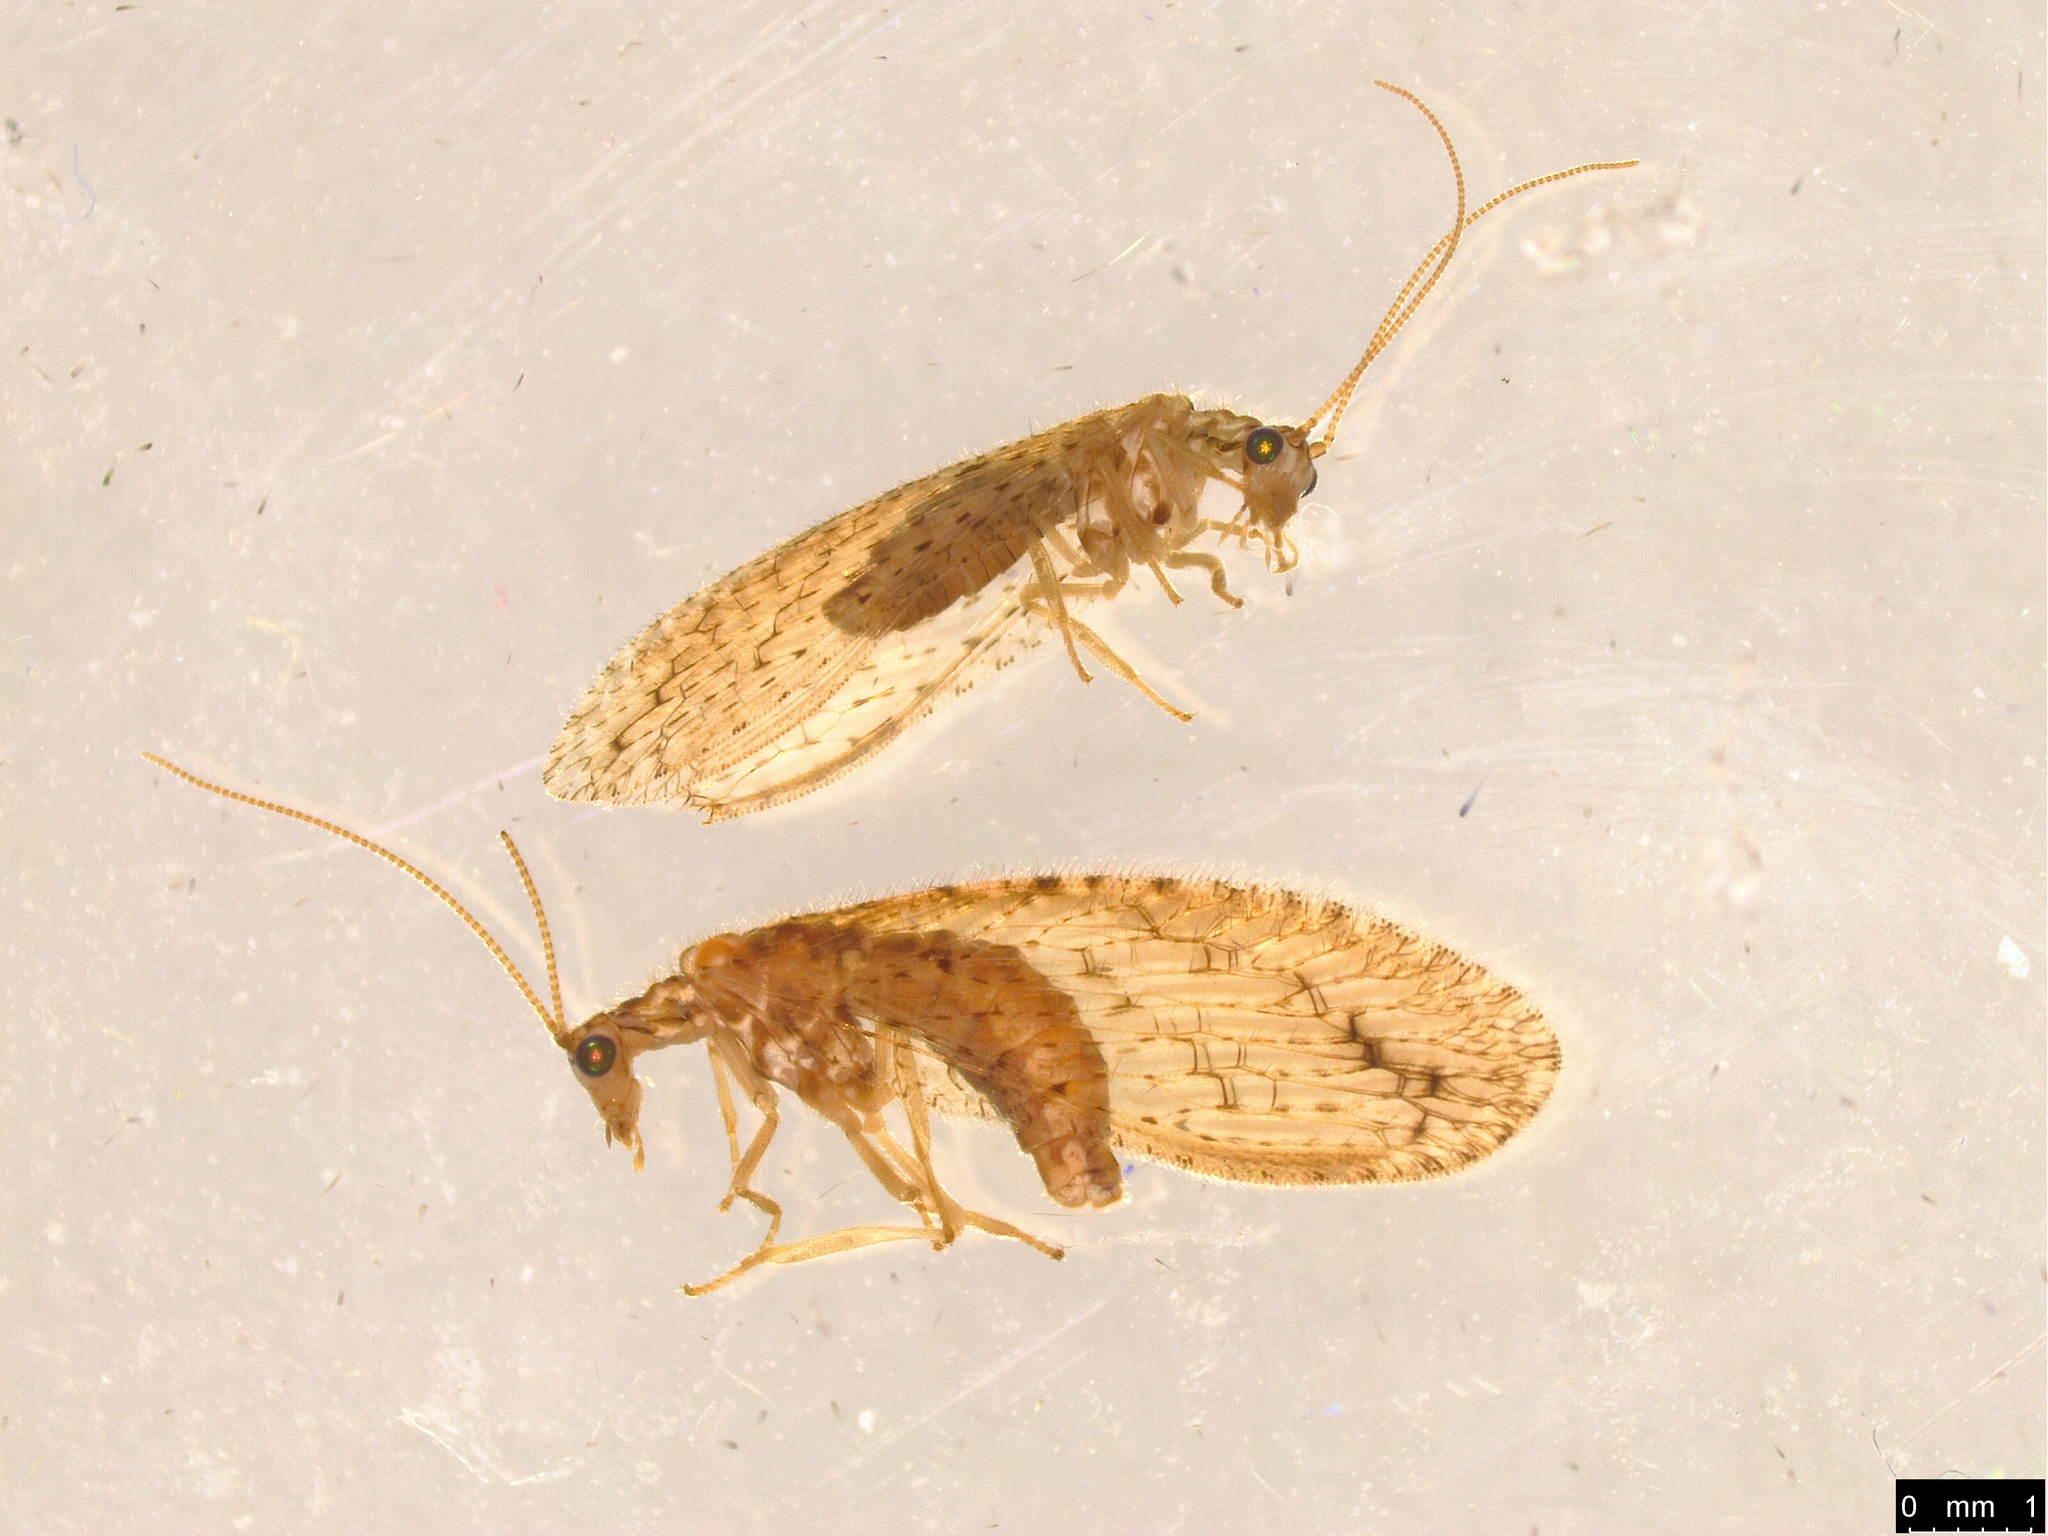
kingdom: Animalia
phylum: Arthropoda
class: Insecta
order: Neuroptera
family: Hemerobiidae
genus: Micromus
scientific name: Micromus tasmaniae
